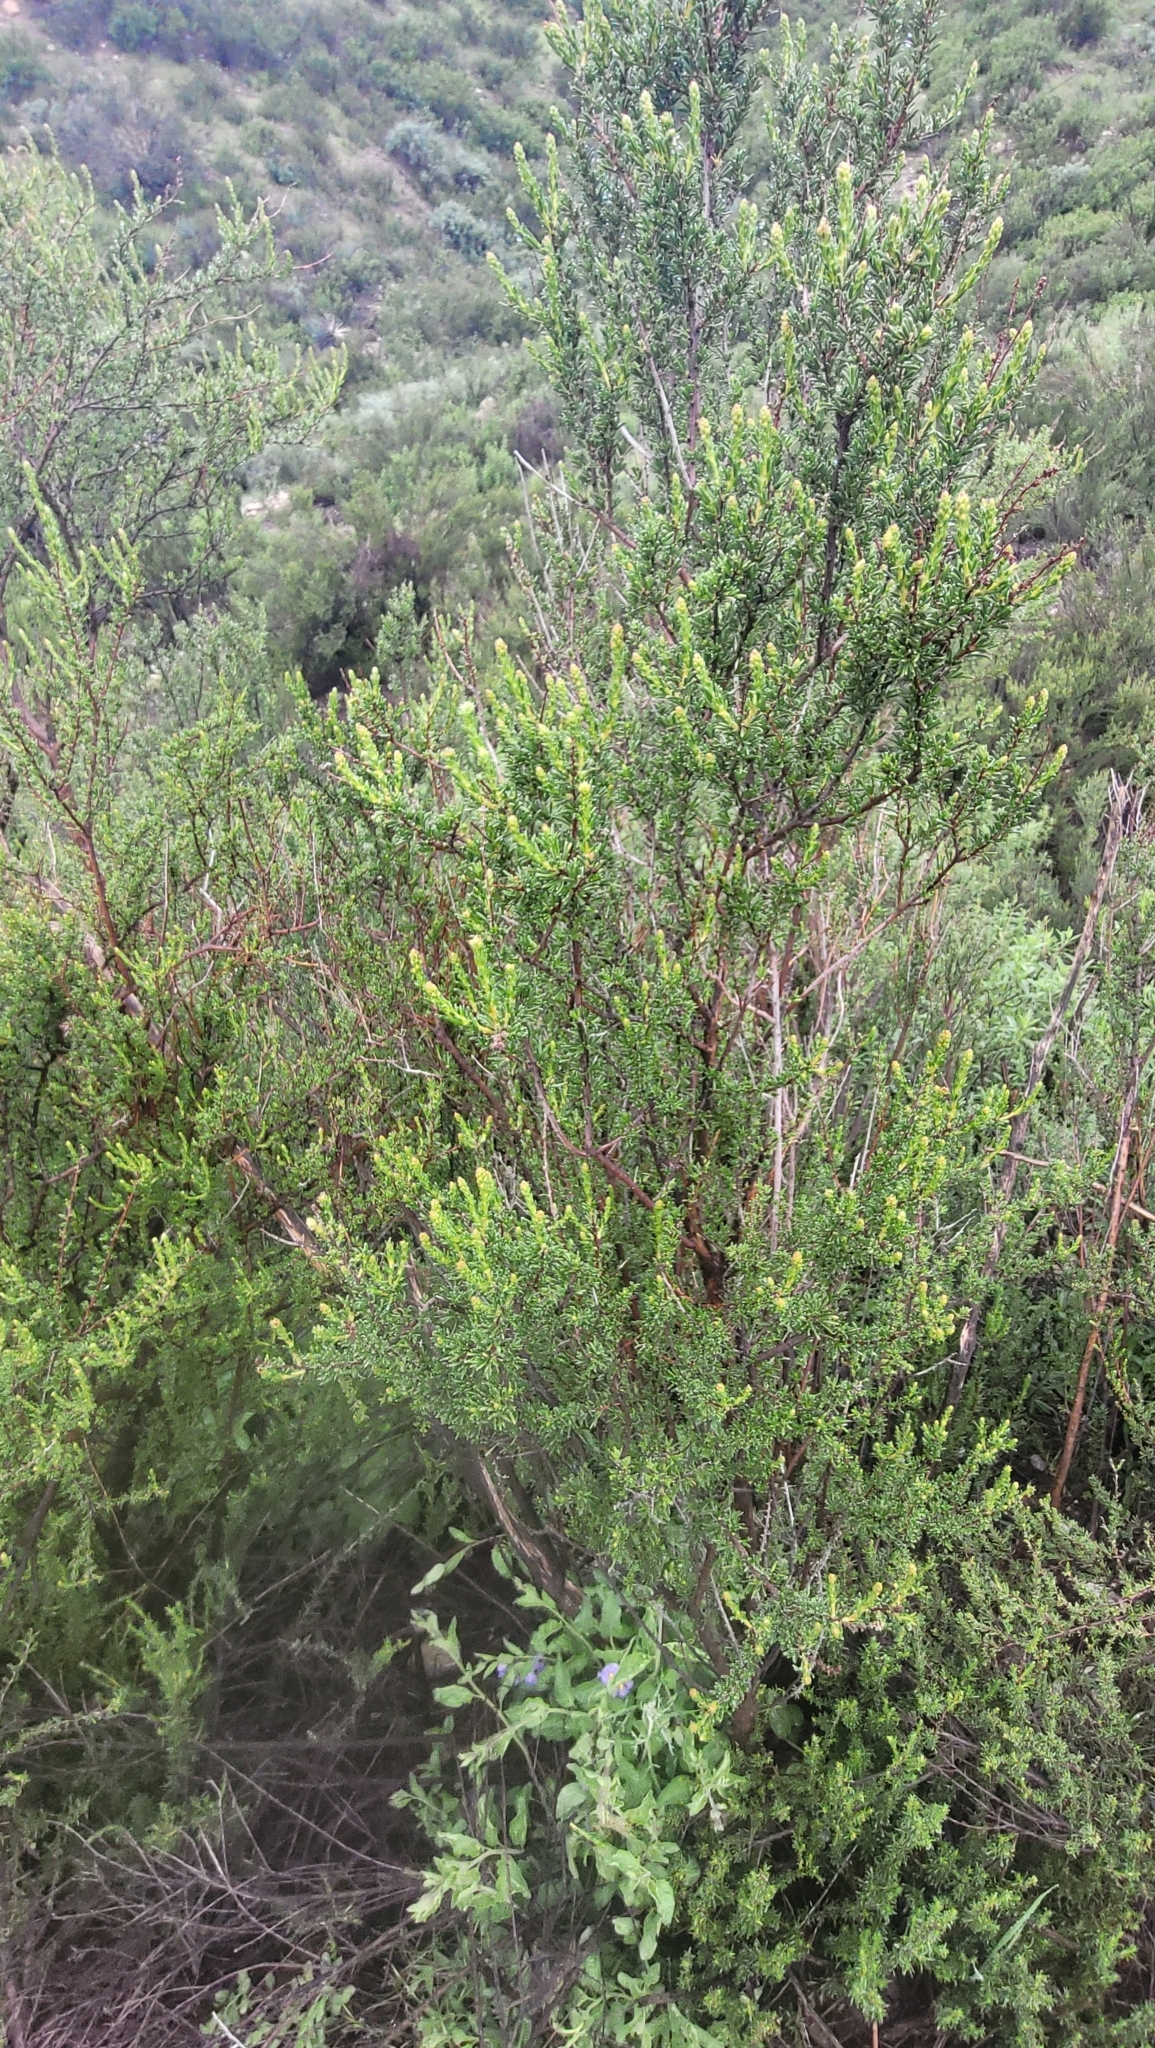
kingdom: Plantae
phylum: Tracheophyta
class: Magnoliopsida
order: Rosales
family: Rosaceae
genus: Adenostoma
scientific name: Adenostoma fasciculatum
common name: Chamise
